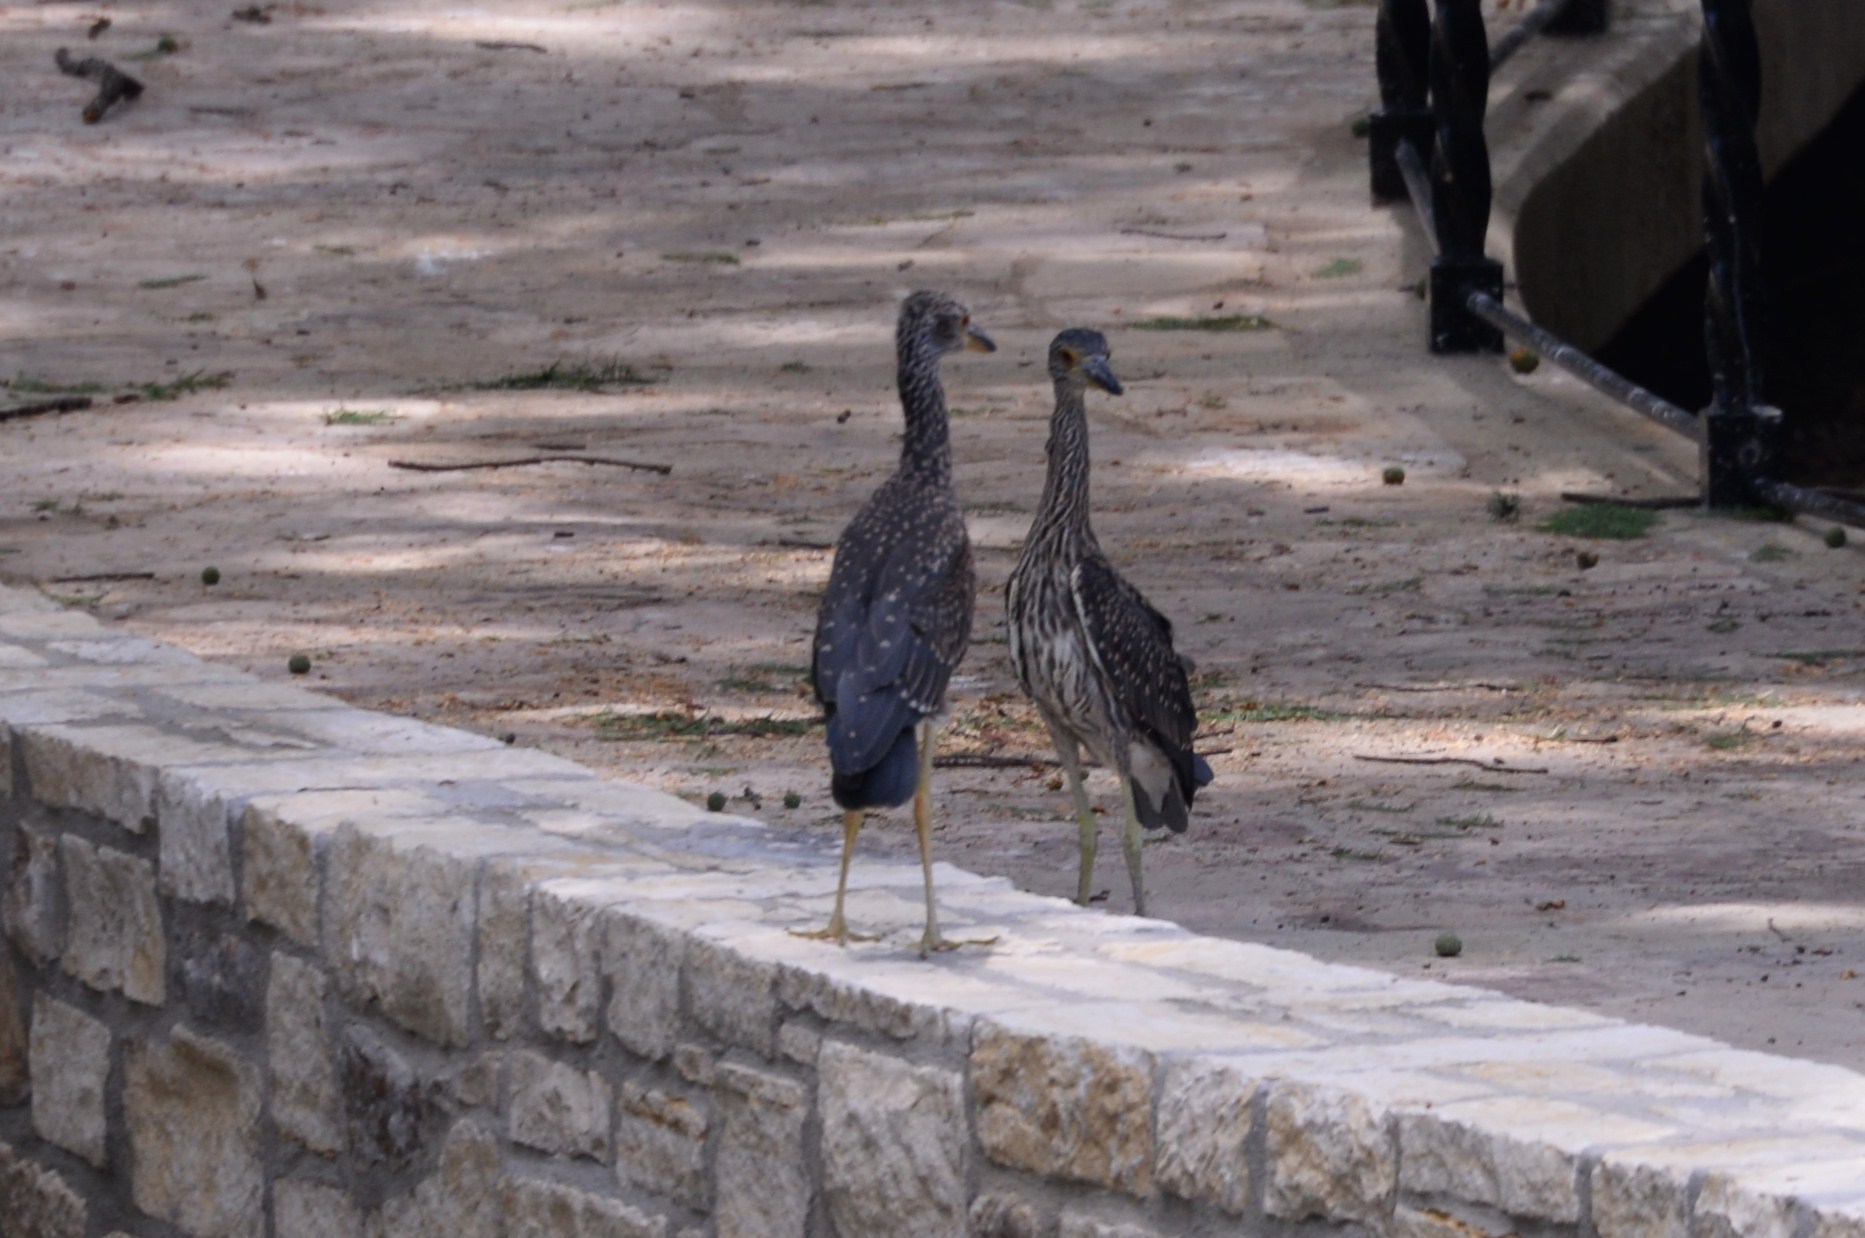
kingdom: Animalia
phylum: Chordata
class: Aves
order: Pelecaniformes
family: Ardeidae
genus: Nyctanassa
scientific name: Nyctanassa violacea
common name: Yellow-crowned night heron
